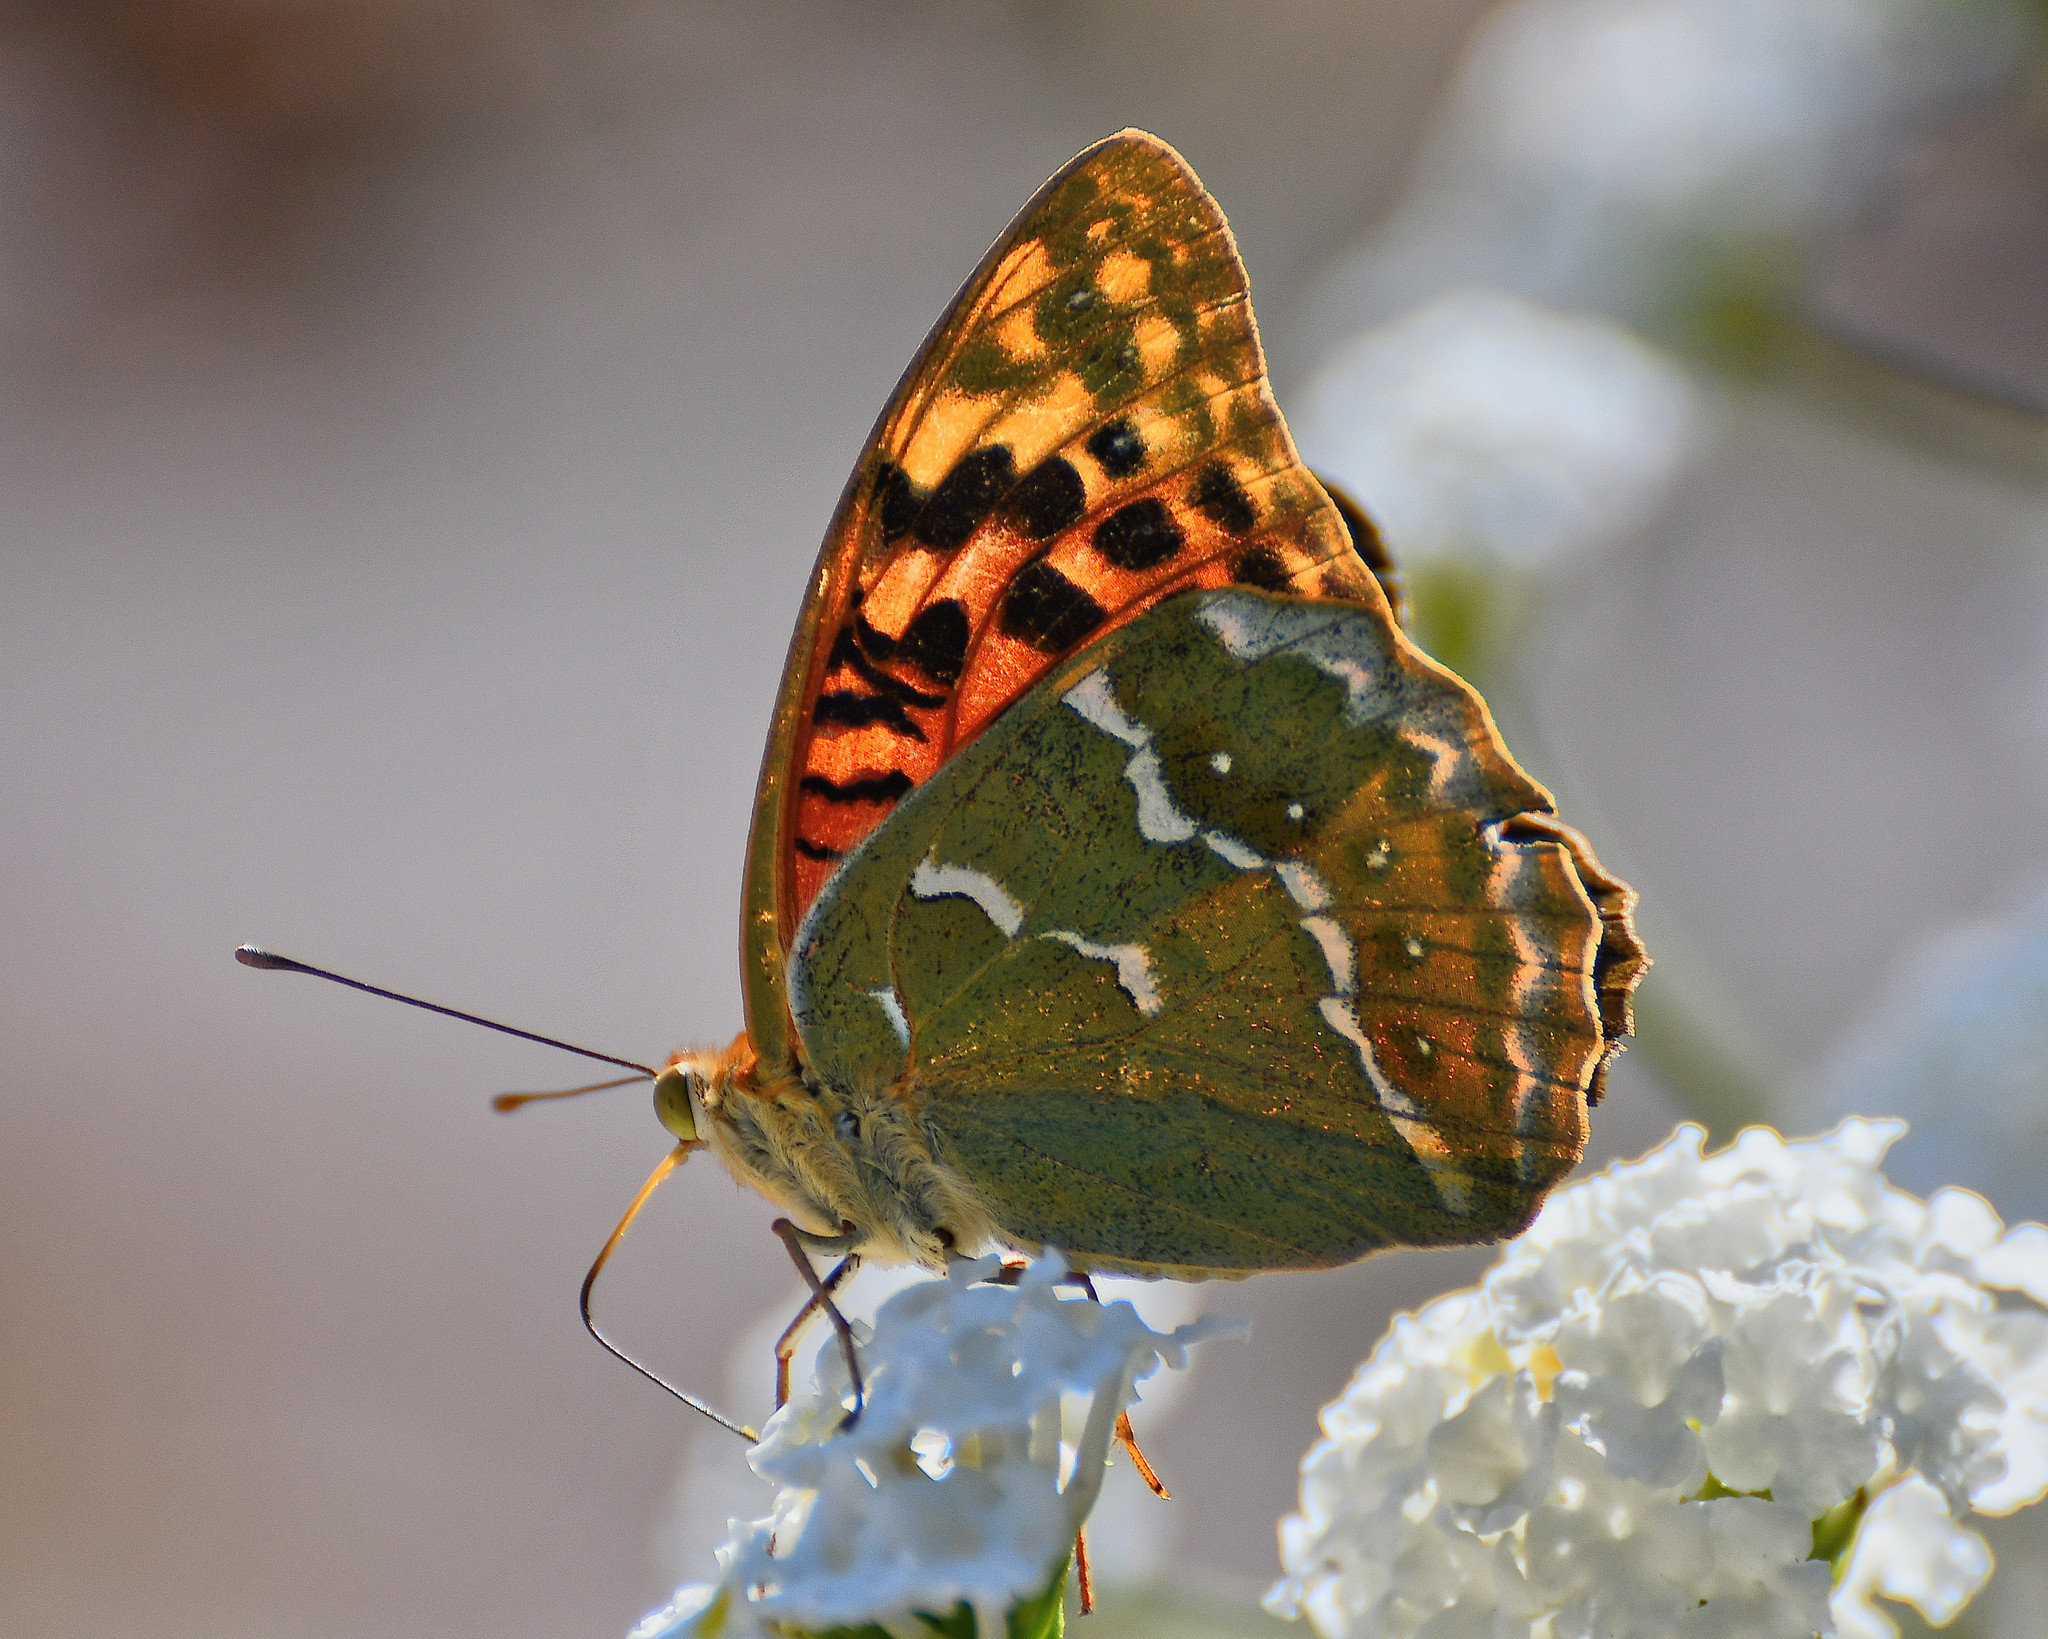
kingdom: Animalia
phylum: Arthropoda
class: Insecta
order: Lepidoptera
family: Nymphalidae
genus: Damora
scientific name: Damora pandora
